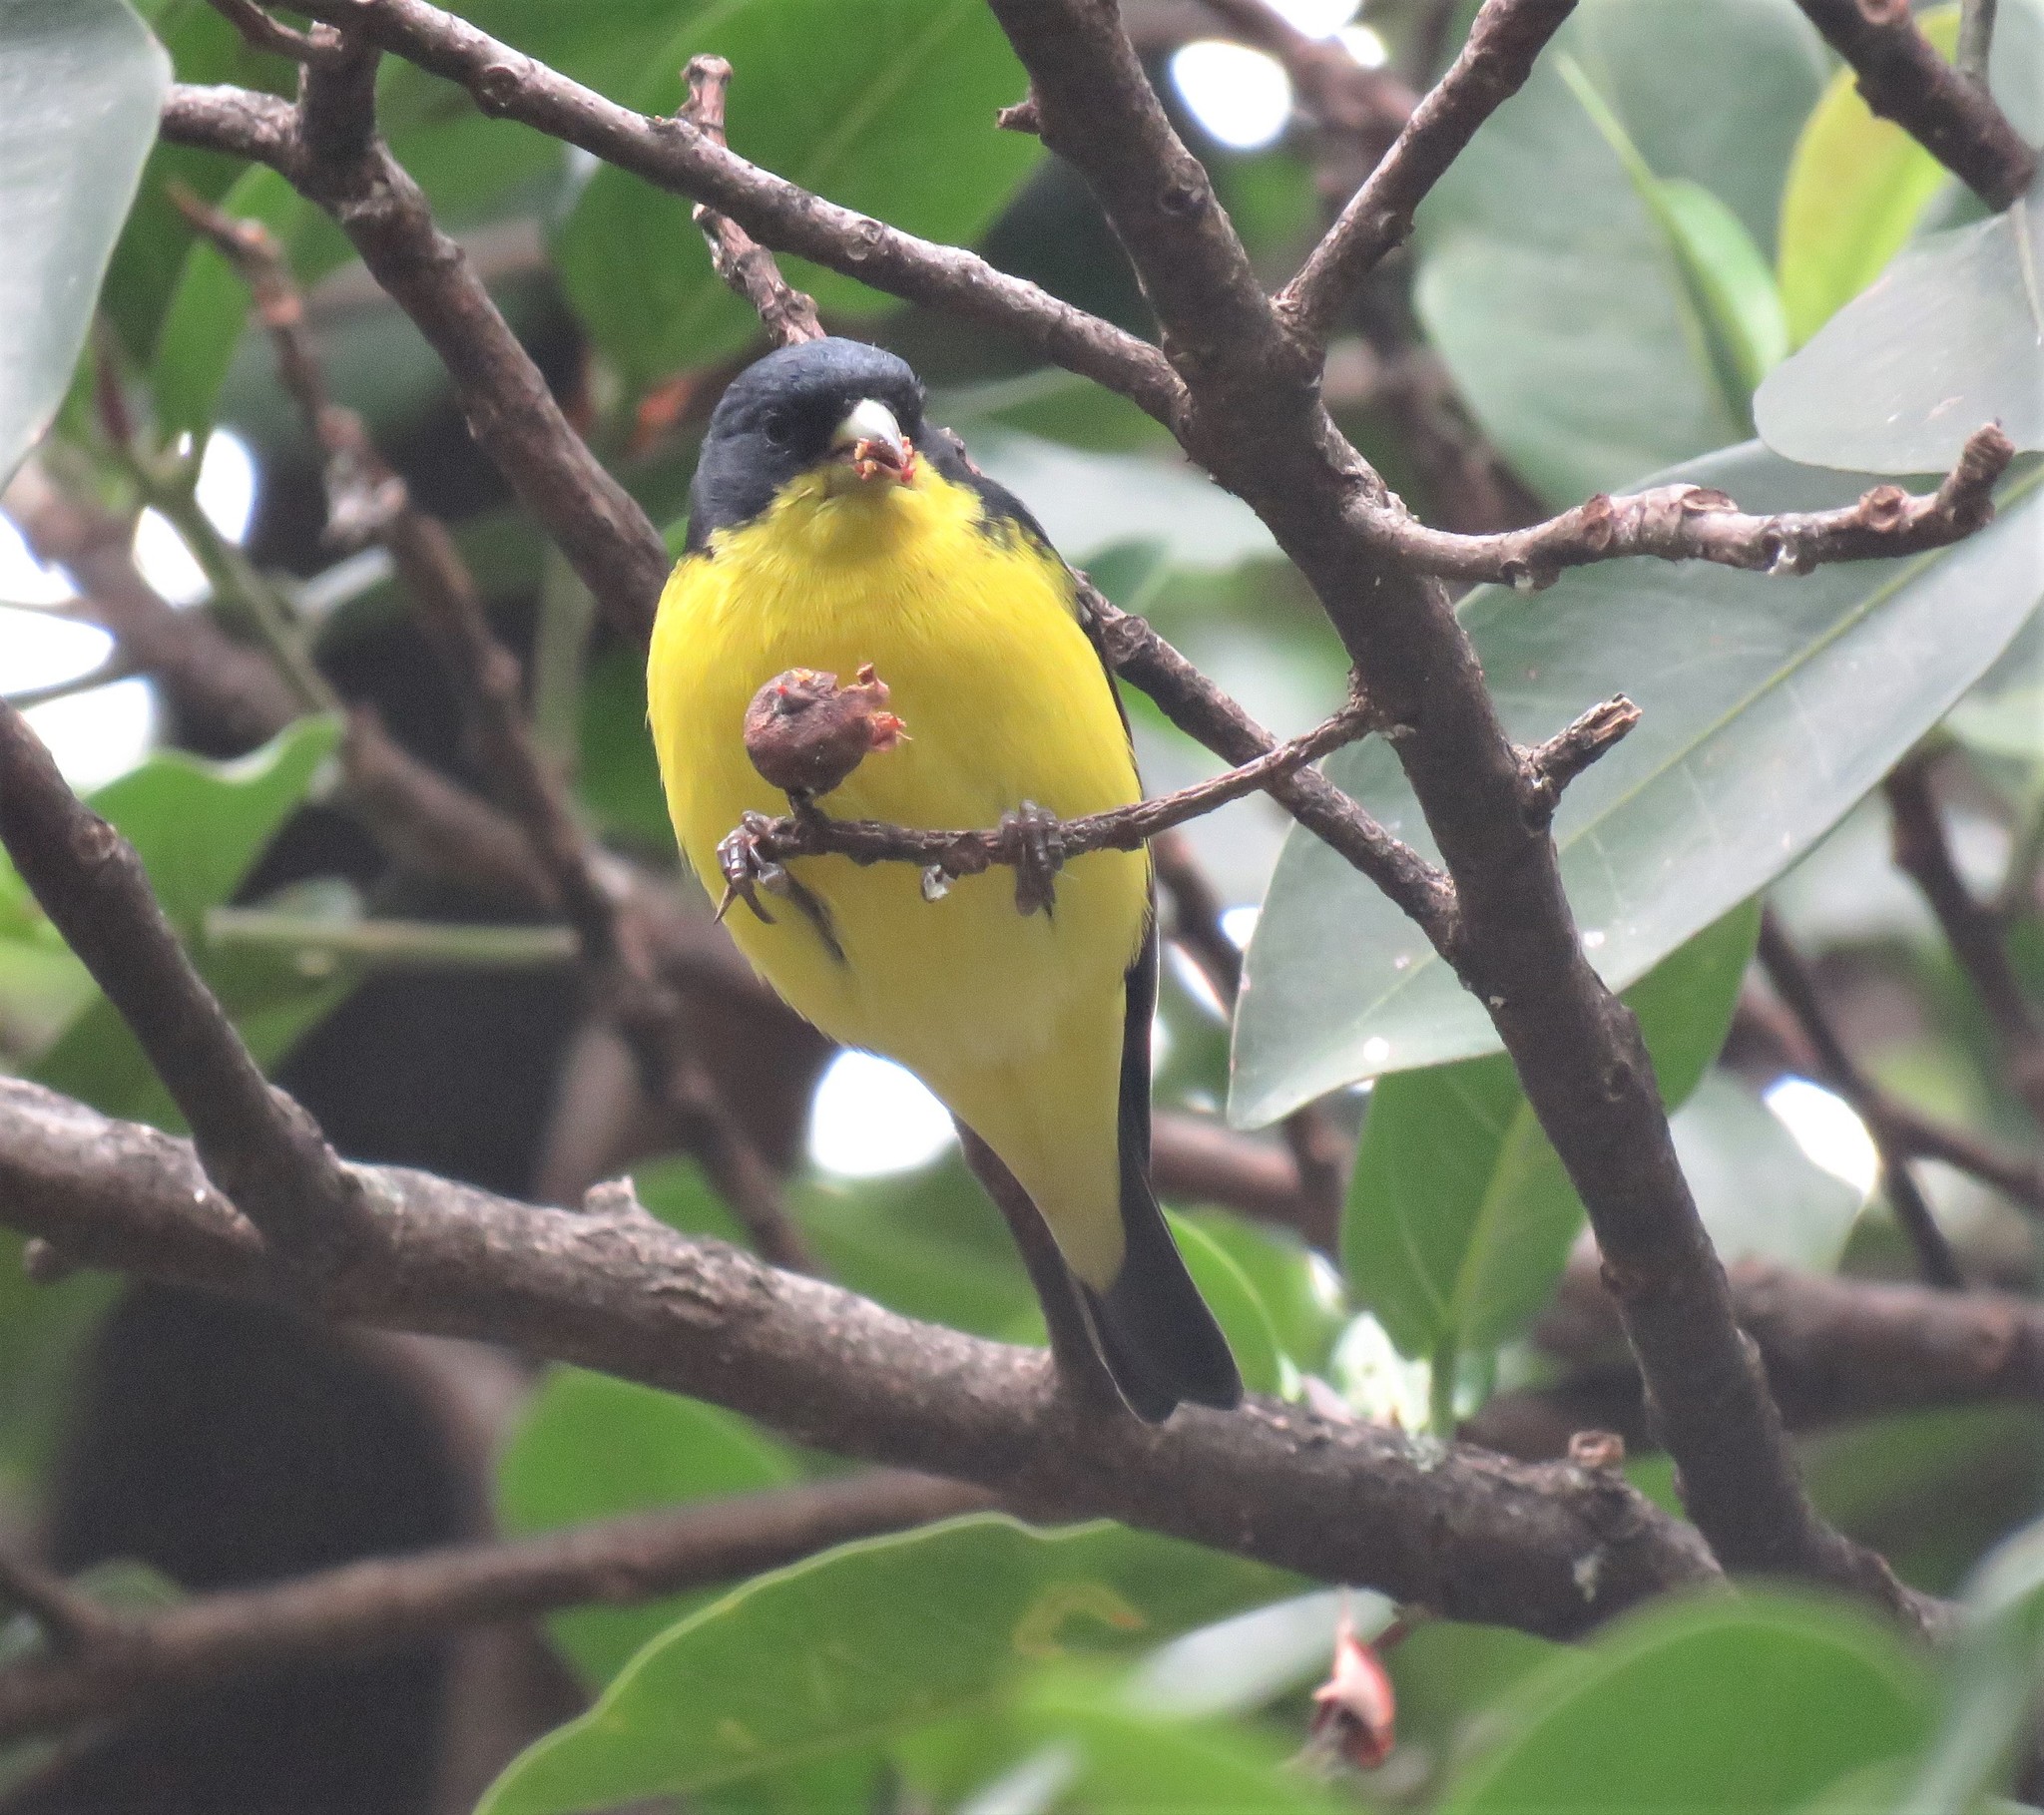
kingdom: Animalia
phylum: Chordata
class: Aves
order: Passeriformes
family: Fringillidae
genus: Spinus
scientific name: Spinus psaltria
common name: Lesser goldfinch
